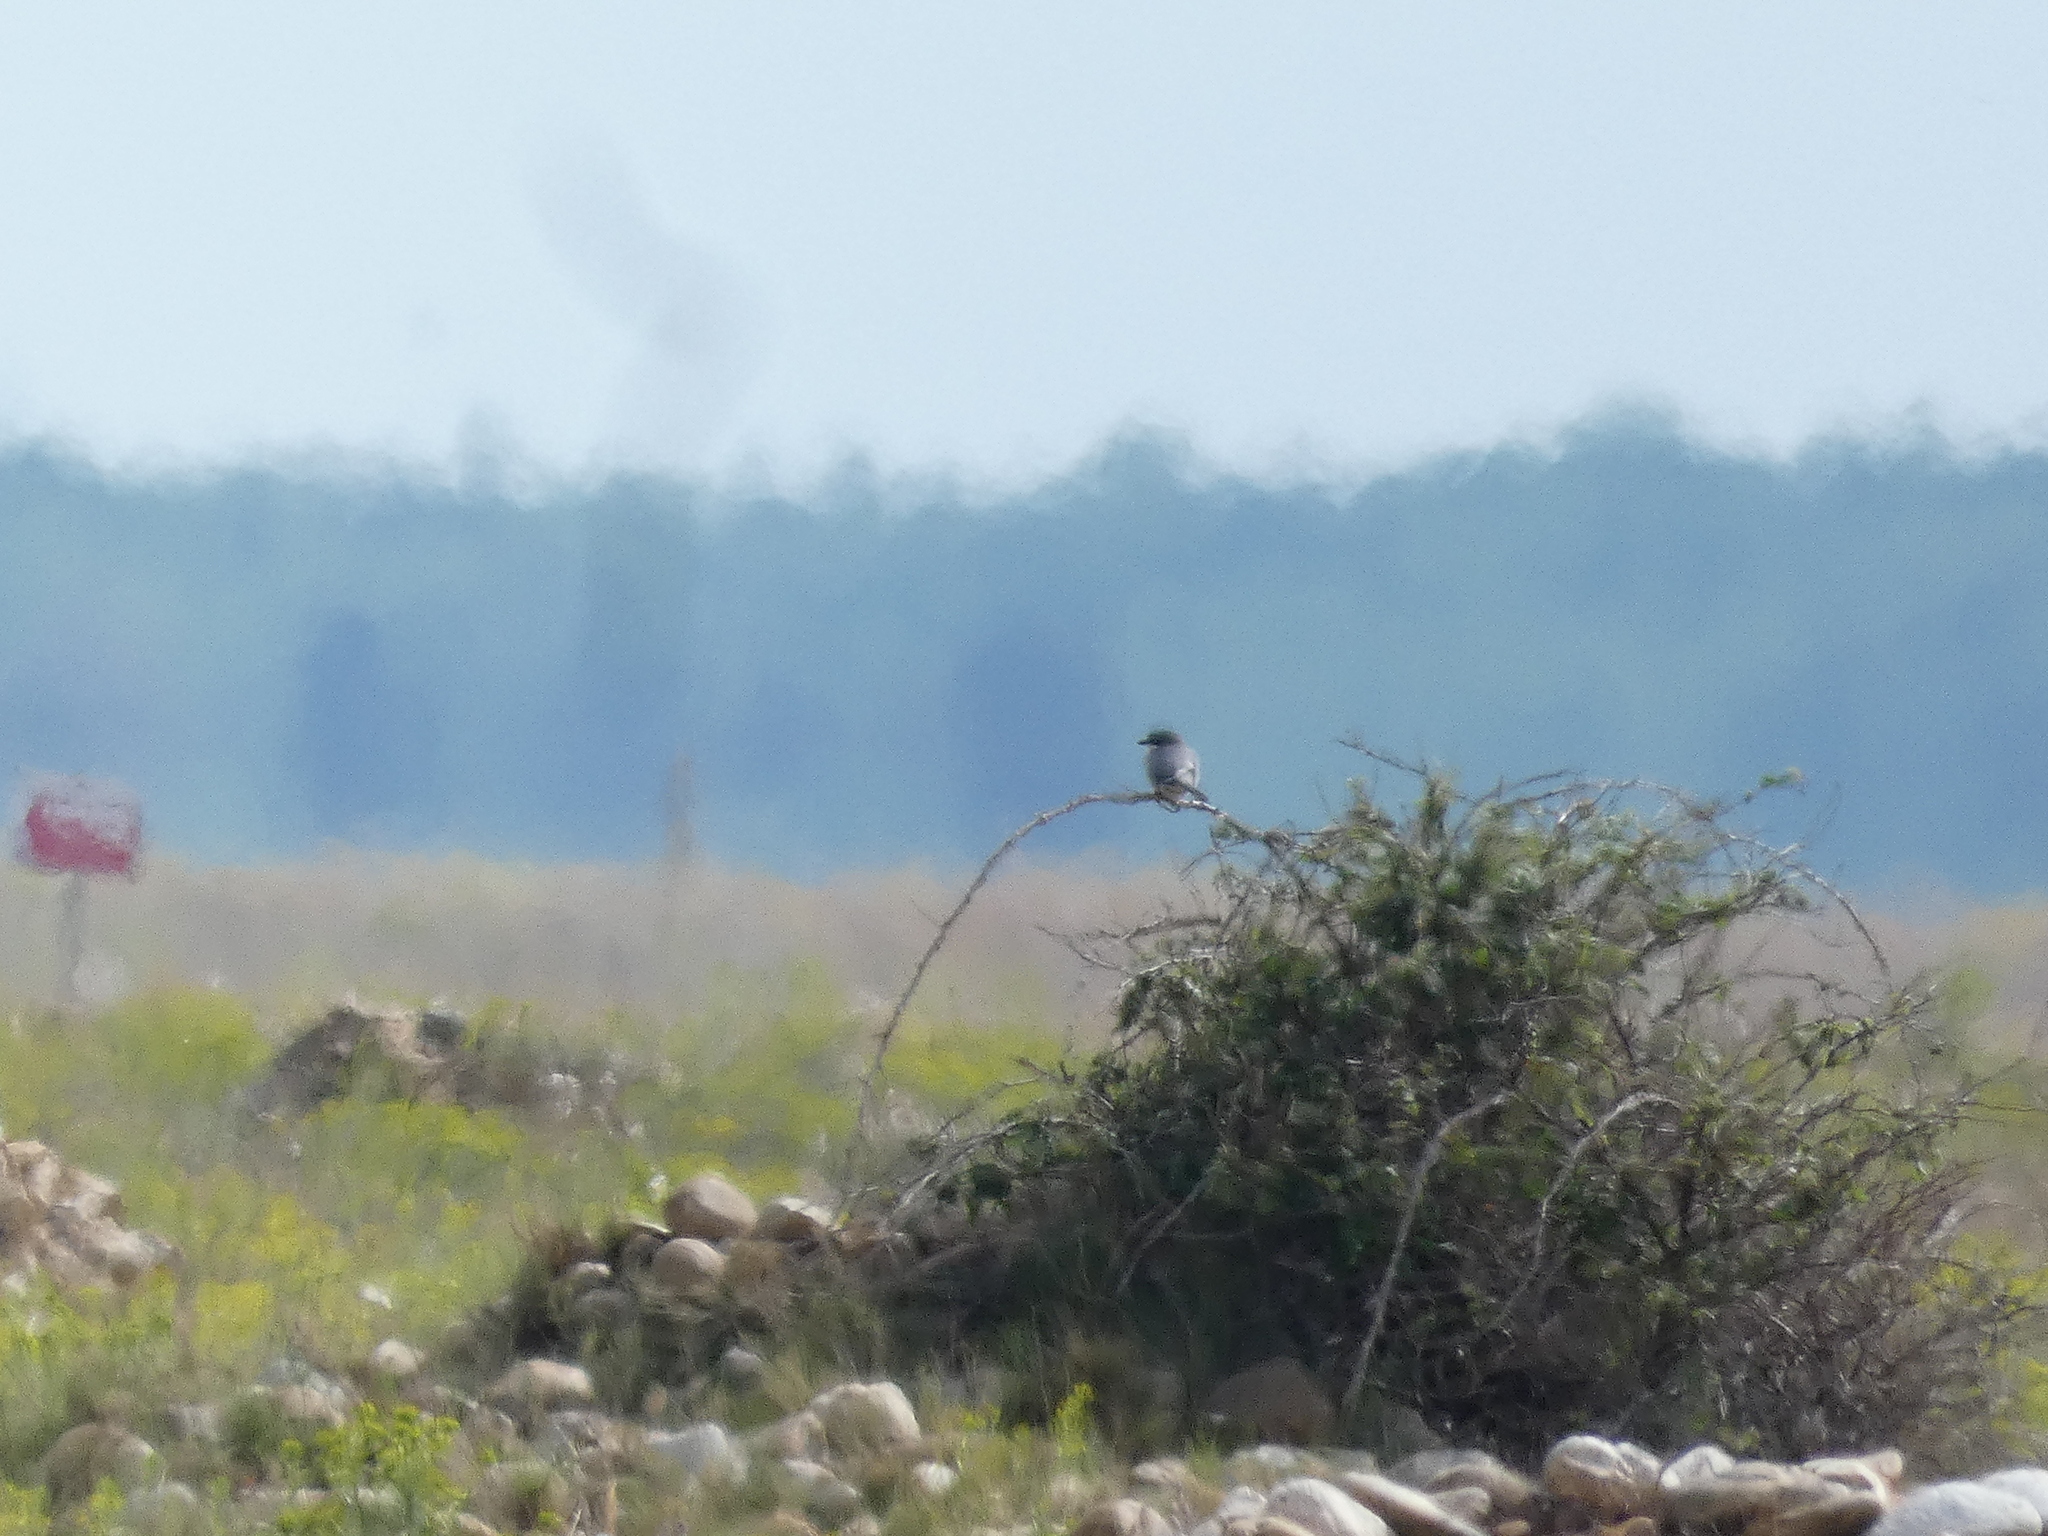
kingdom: Animalia
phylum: Chordata
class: Aves
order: Passeriformes
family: Laniidae
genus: Lanius
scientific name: Lanius meridionalis
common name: Iberian grey shrike
